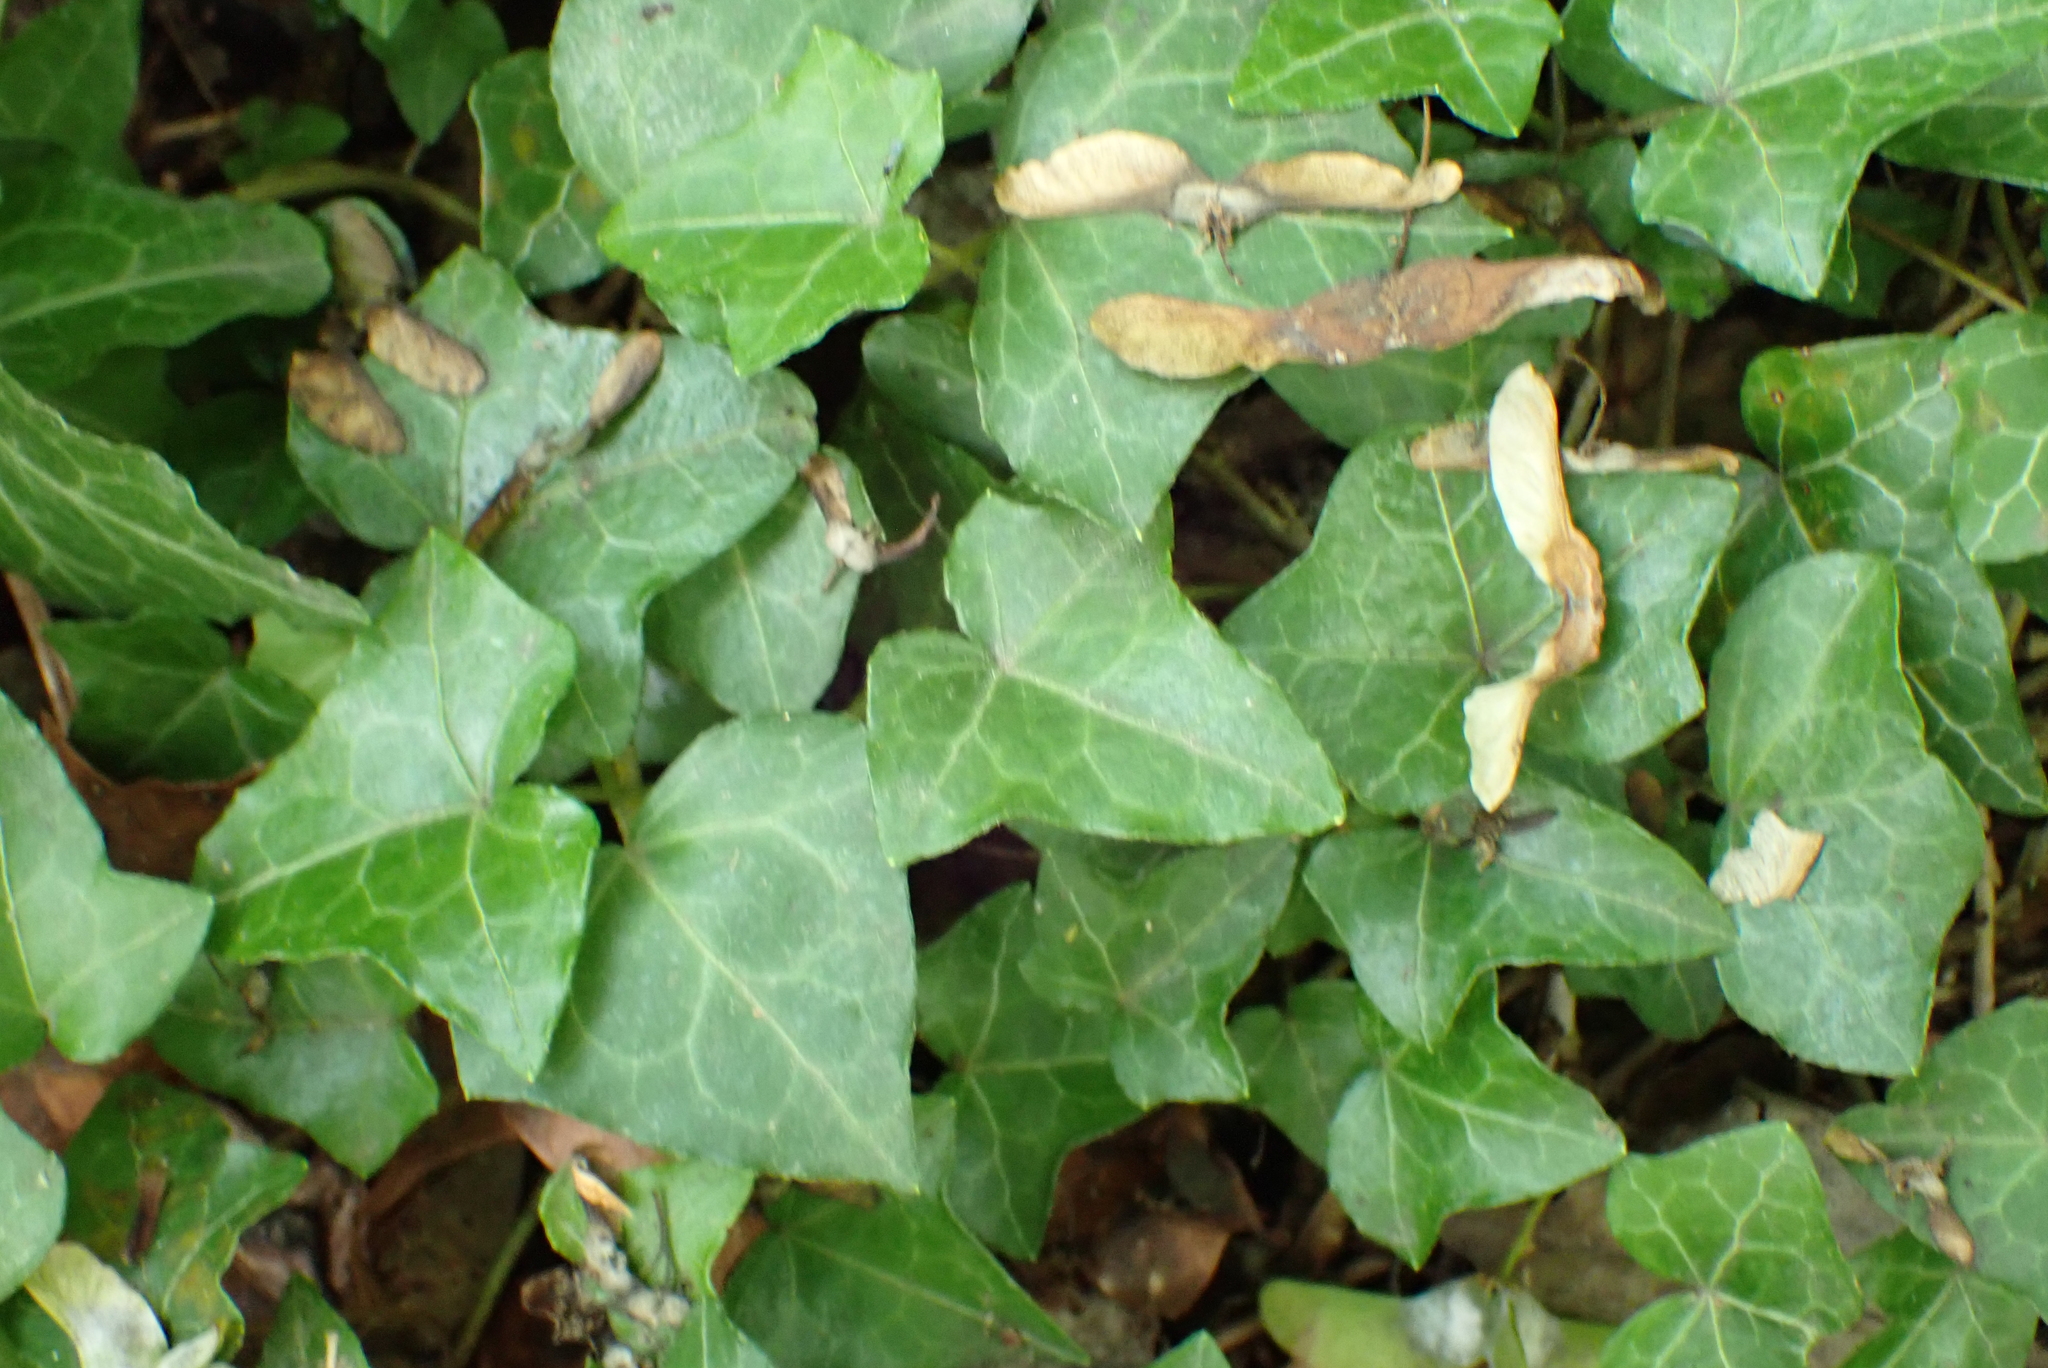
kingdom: Plantae
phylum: Tracheophyta
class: Magnoliopsida
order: Apiales
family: Araliaceae
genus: Hedera
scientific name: Hedera helix
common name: Ivy
